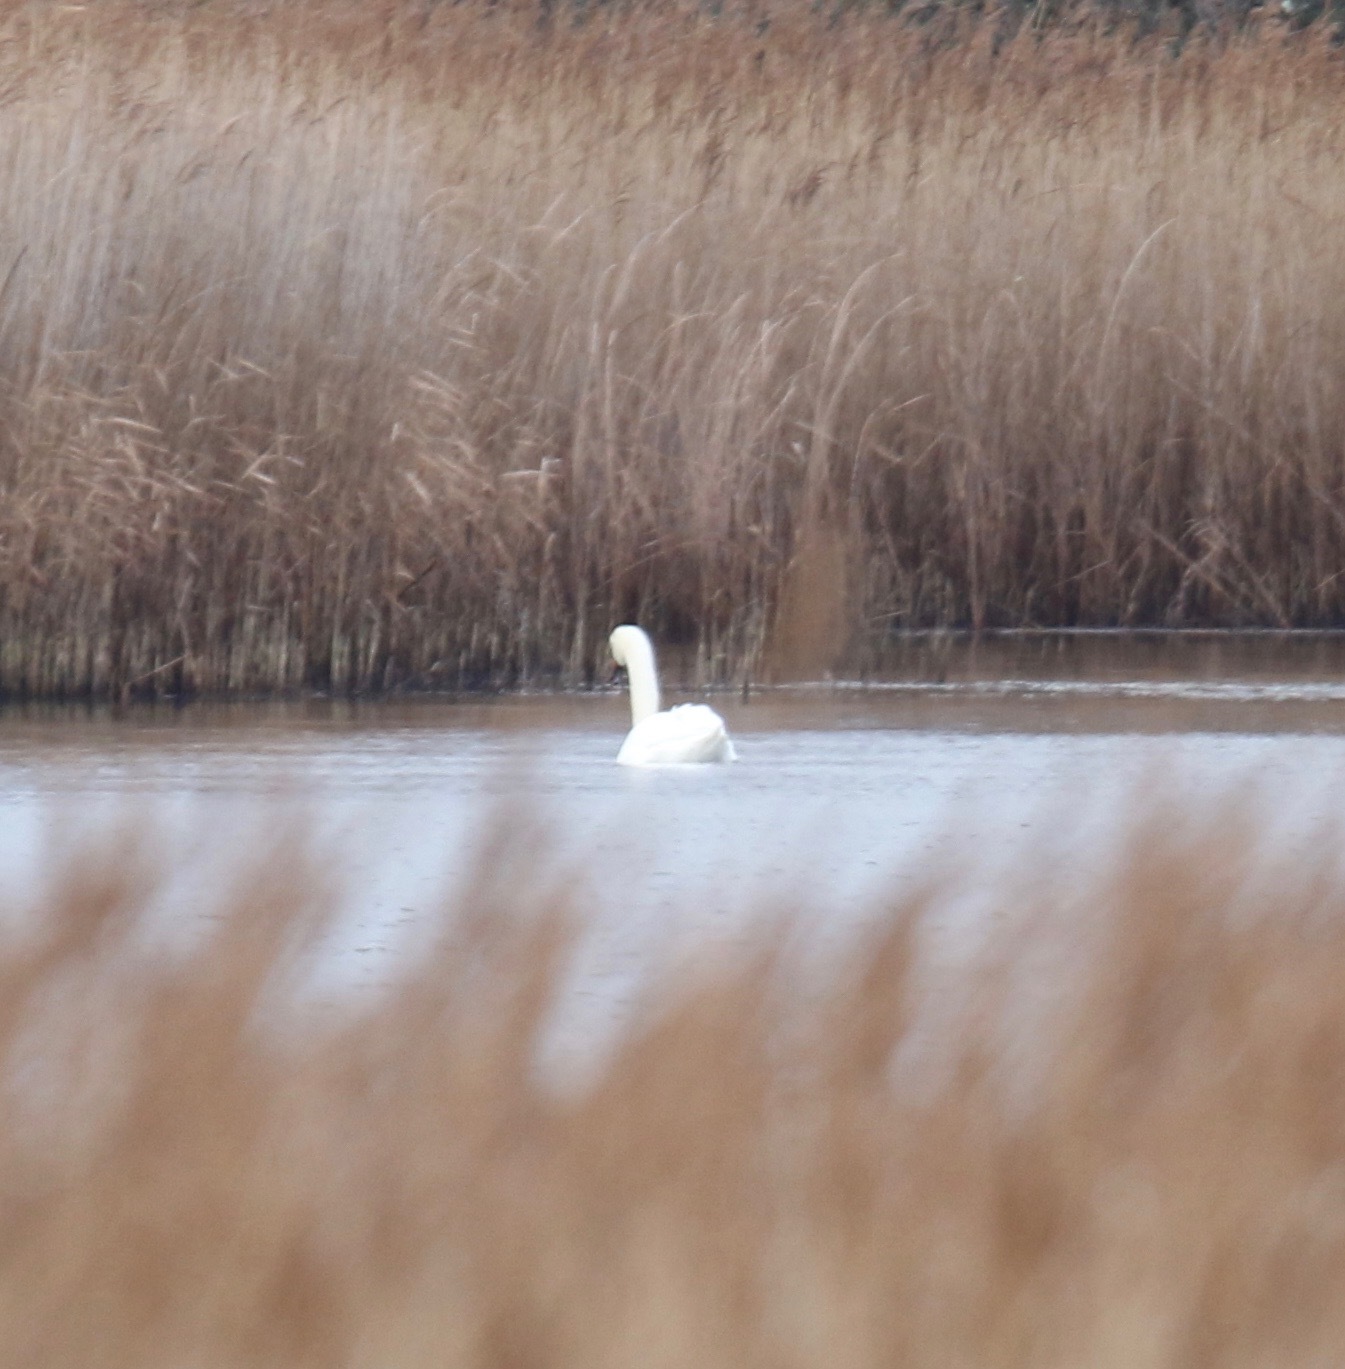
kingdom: Animalia
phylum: Chordata
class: Aves
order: Anseriformes
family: Anatidae
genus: Cygnus
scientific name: Cygnus olor
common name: Mute swan
